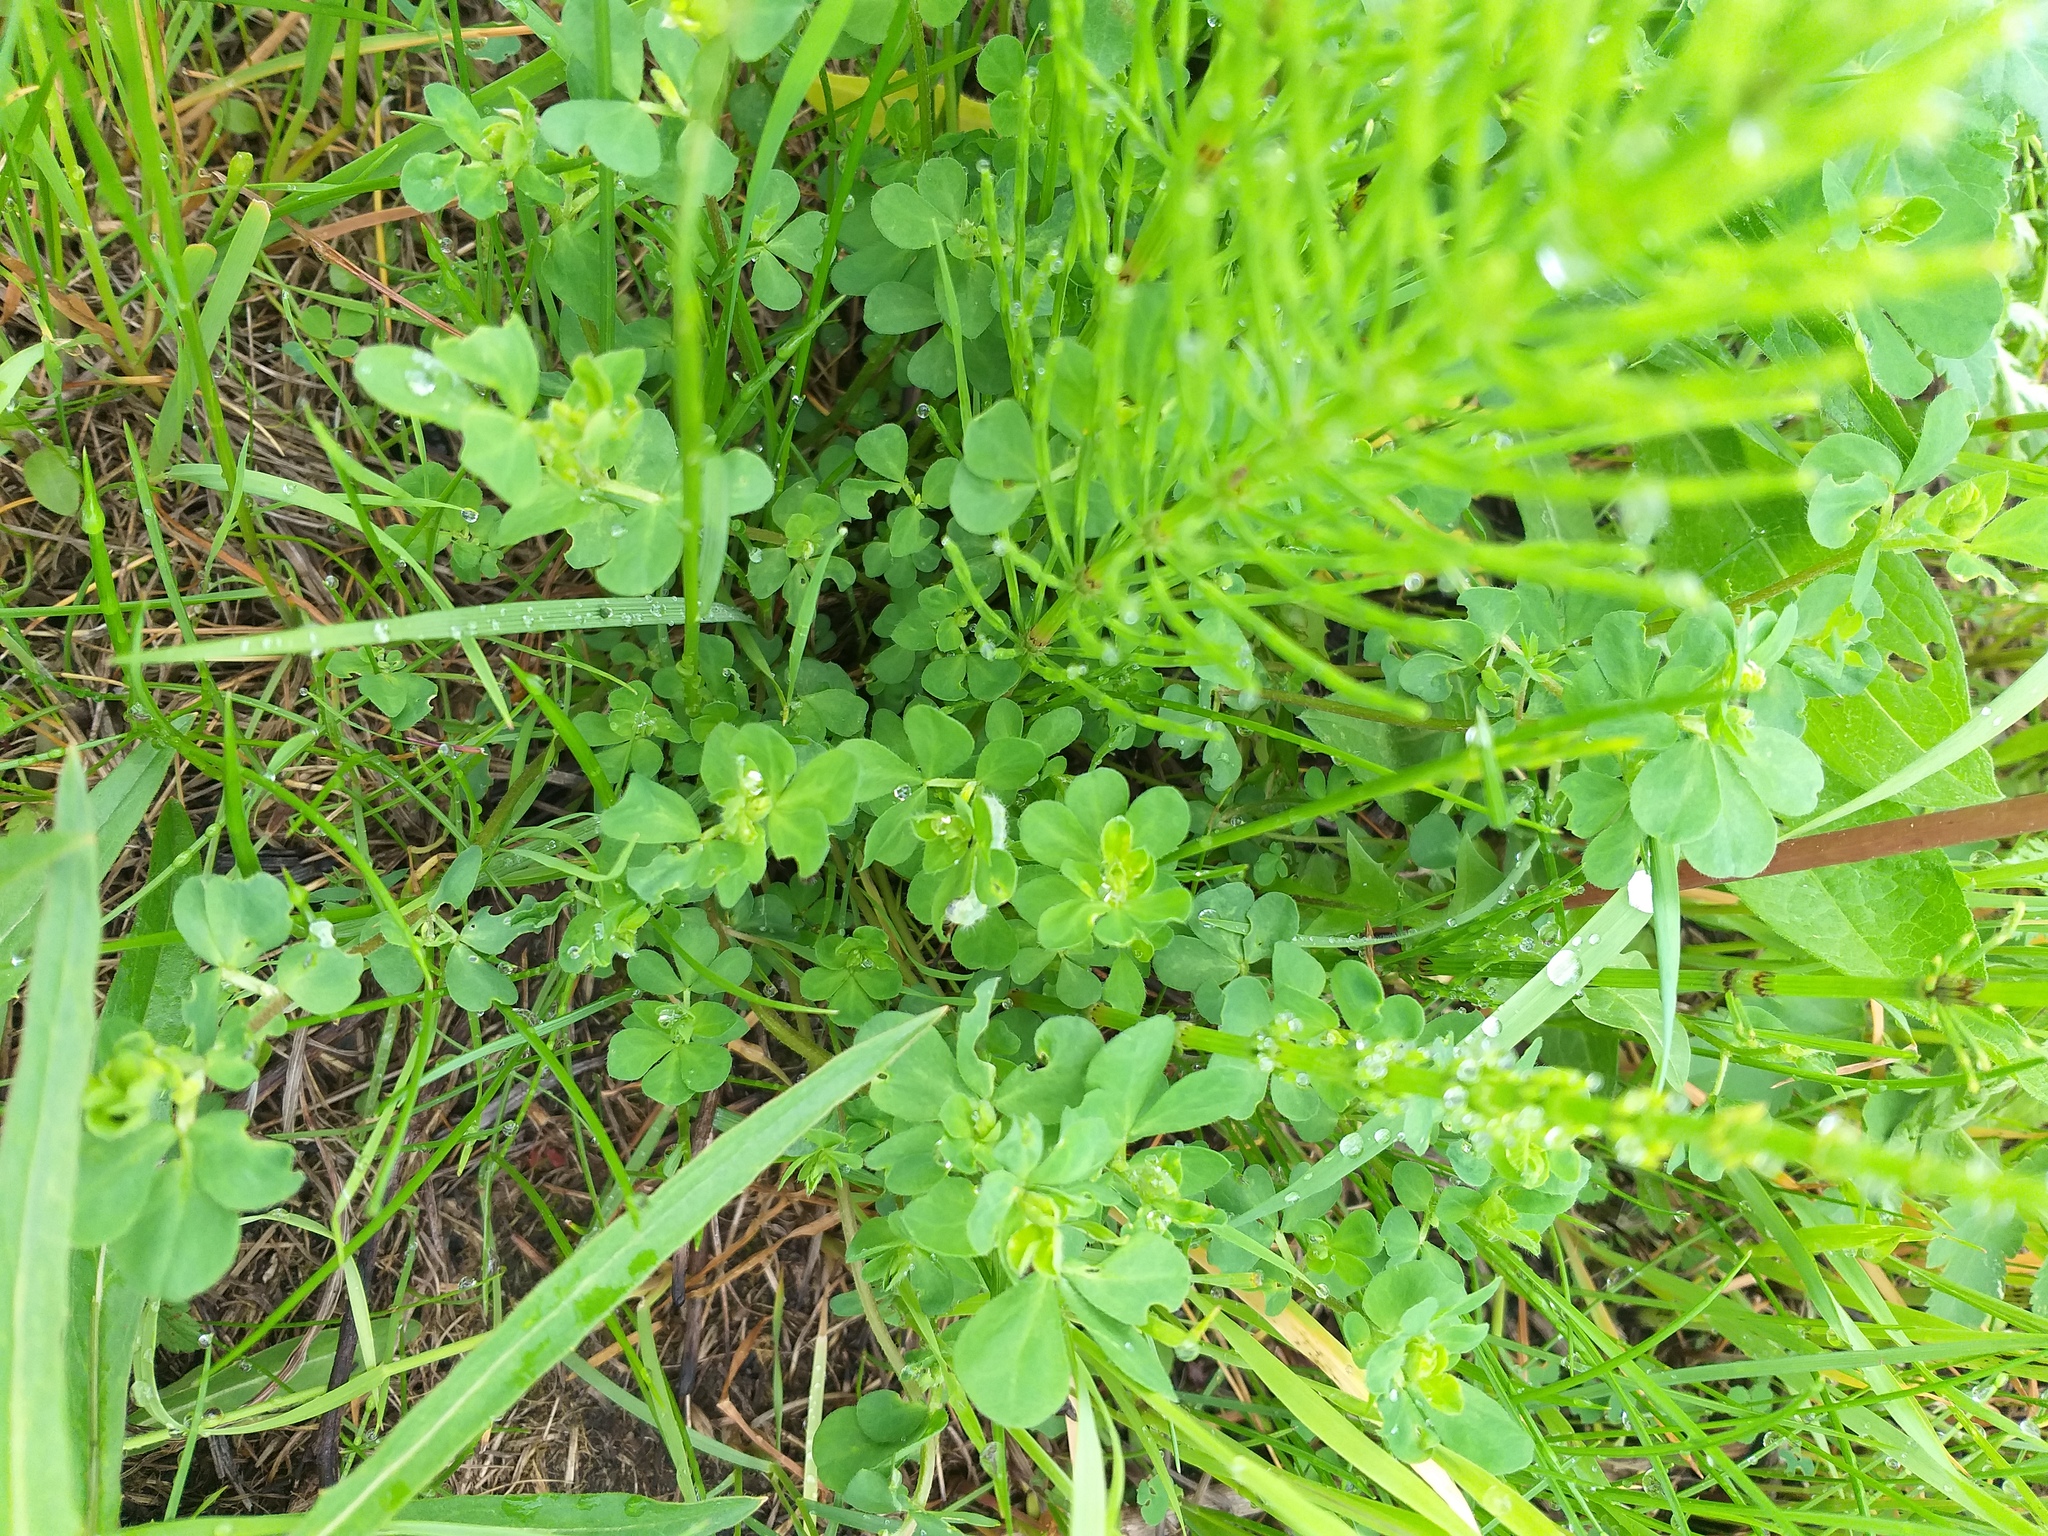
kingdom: Plantae
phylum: Tracheophyta
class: Magnoliopsida
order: Fabales
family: Fabaceae
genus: Lotus
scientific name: Lotus corniculatus
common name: Common bird's-foot-trefoil
